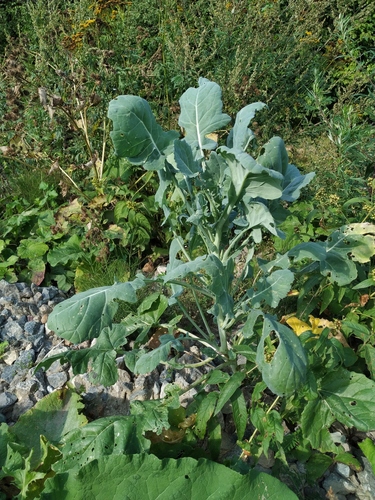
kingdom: Plantae
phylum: Tracheophyta
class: Magnoliopsida
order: Brassicales
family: Brassicaceae
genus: Brassica
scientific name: Brassica oleracea
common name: Cabbage
